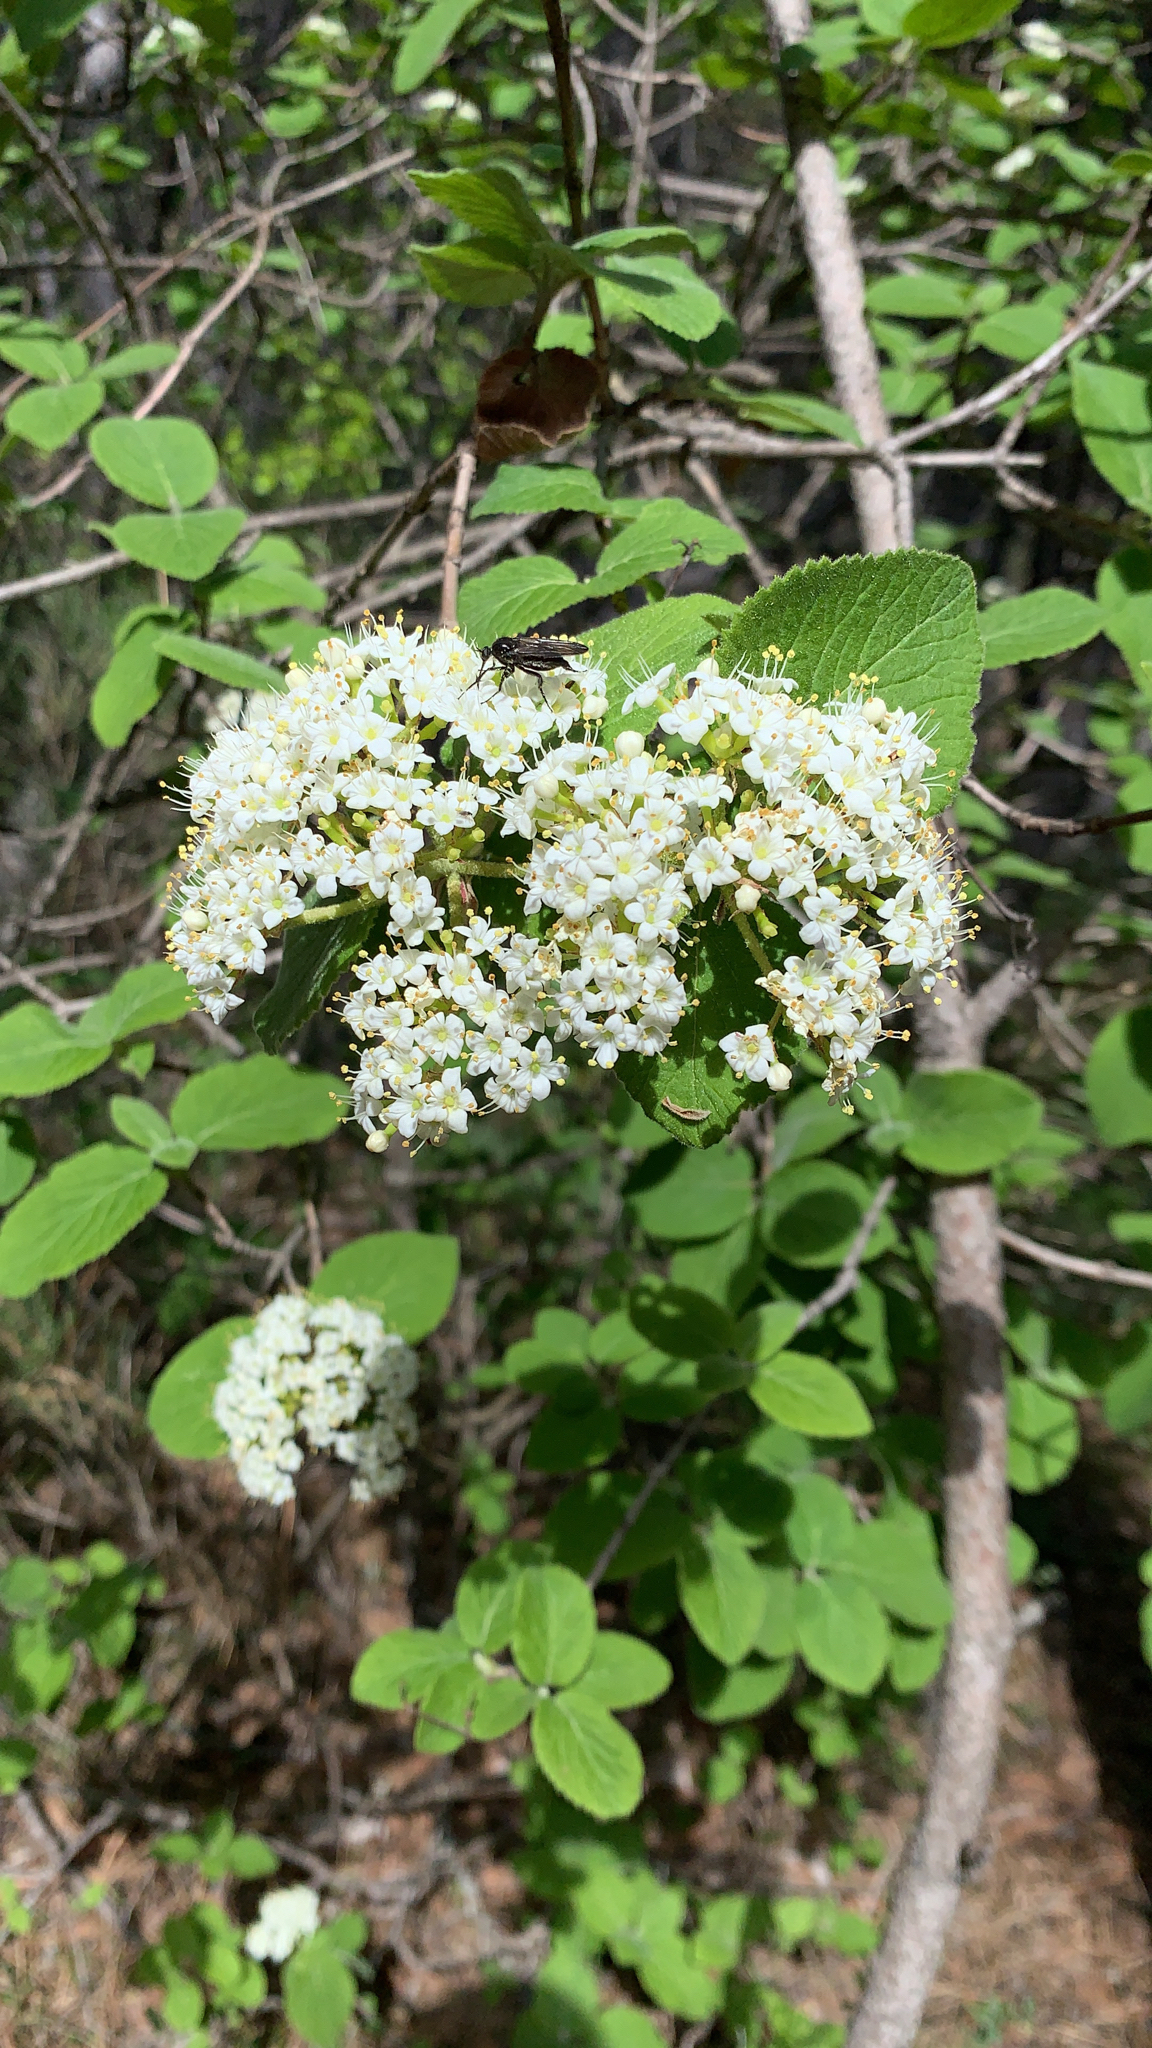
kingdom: Plantae
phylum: Tracheophyta
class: Magnoliopsida
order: Dipsacales
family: Viburnaceae
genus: Viburnum
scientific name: Viburnum lantana
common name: Wayfaring tree
